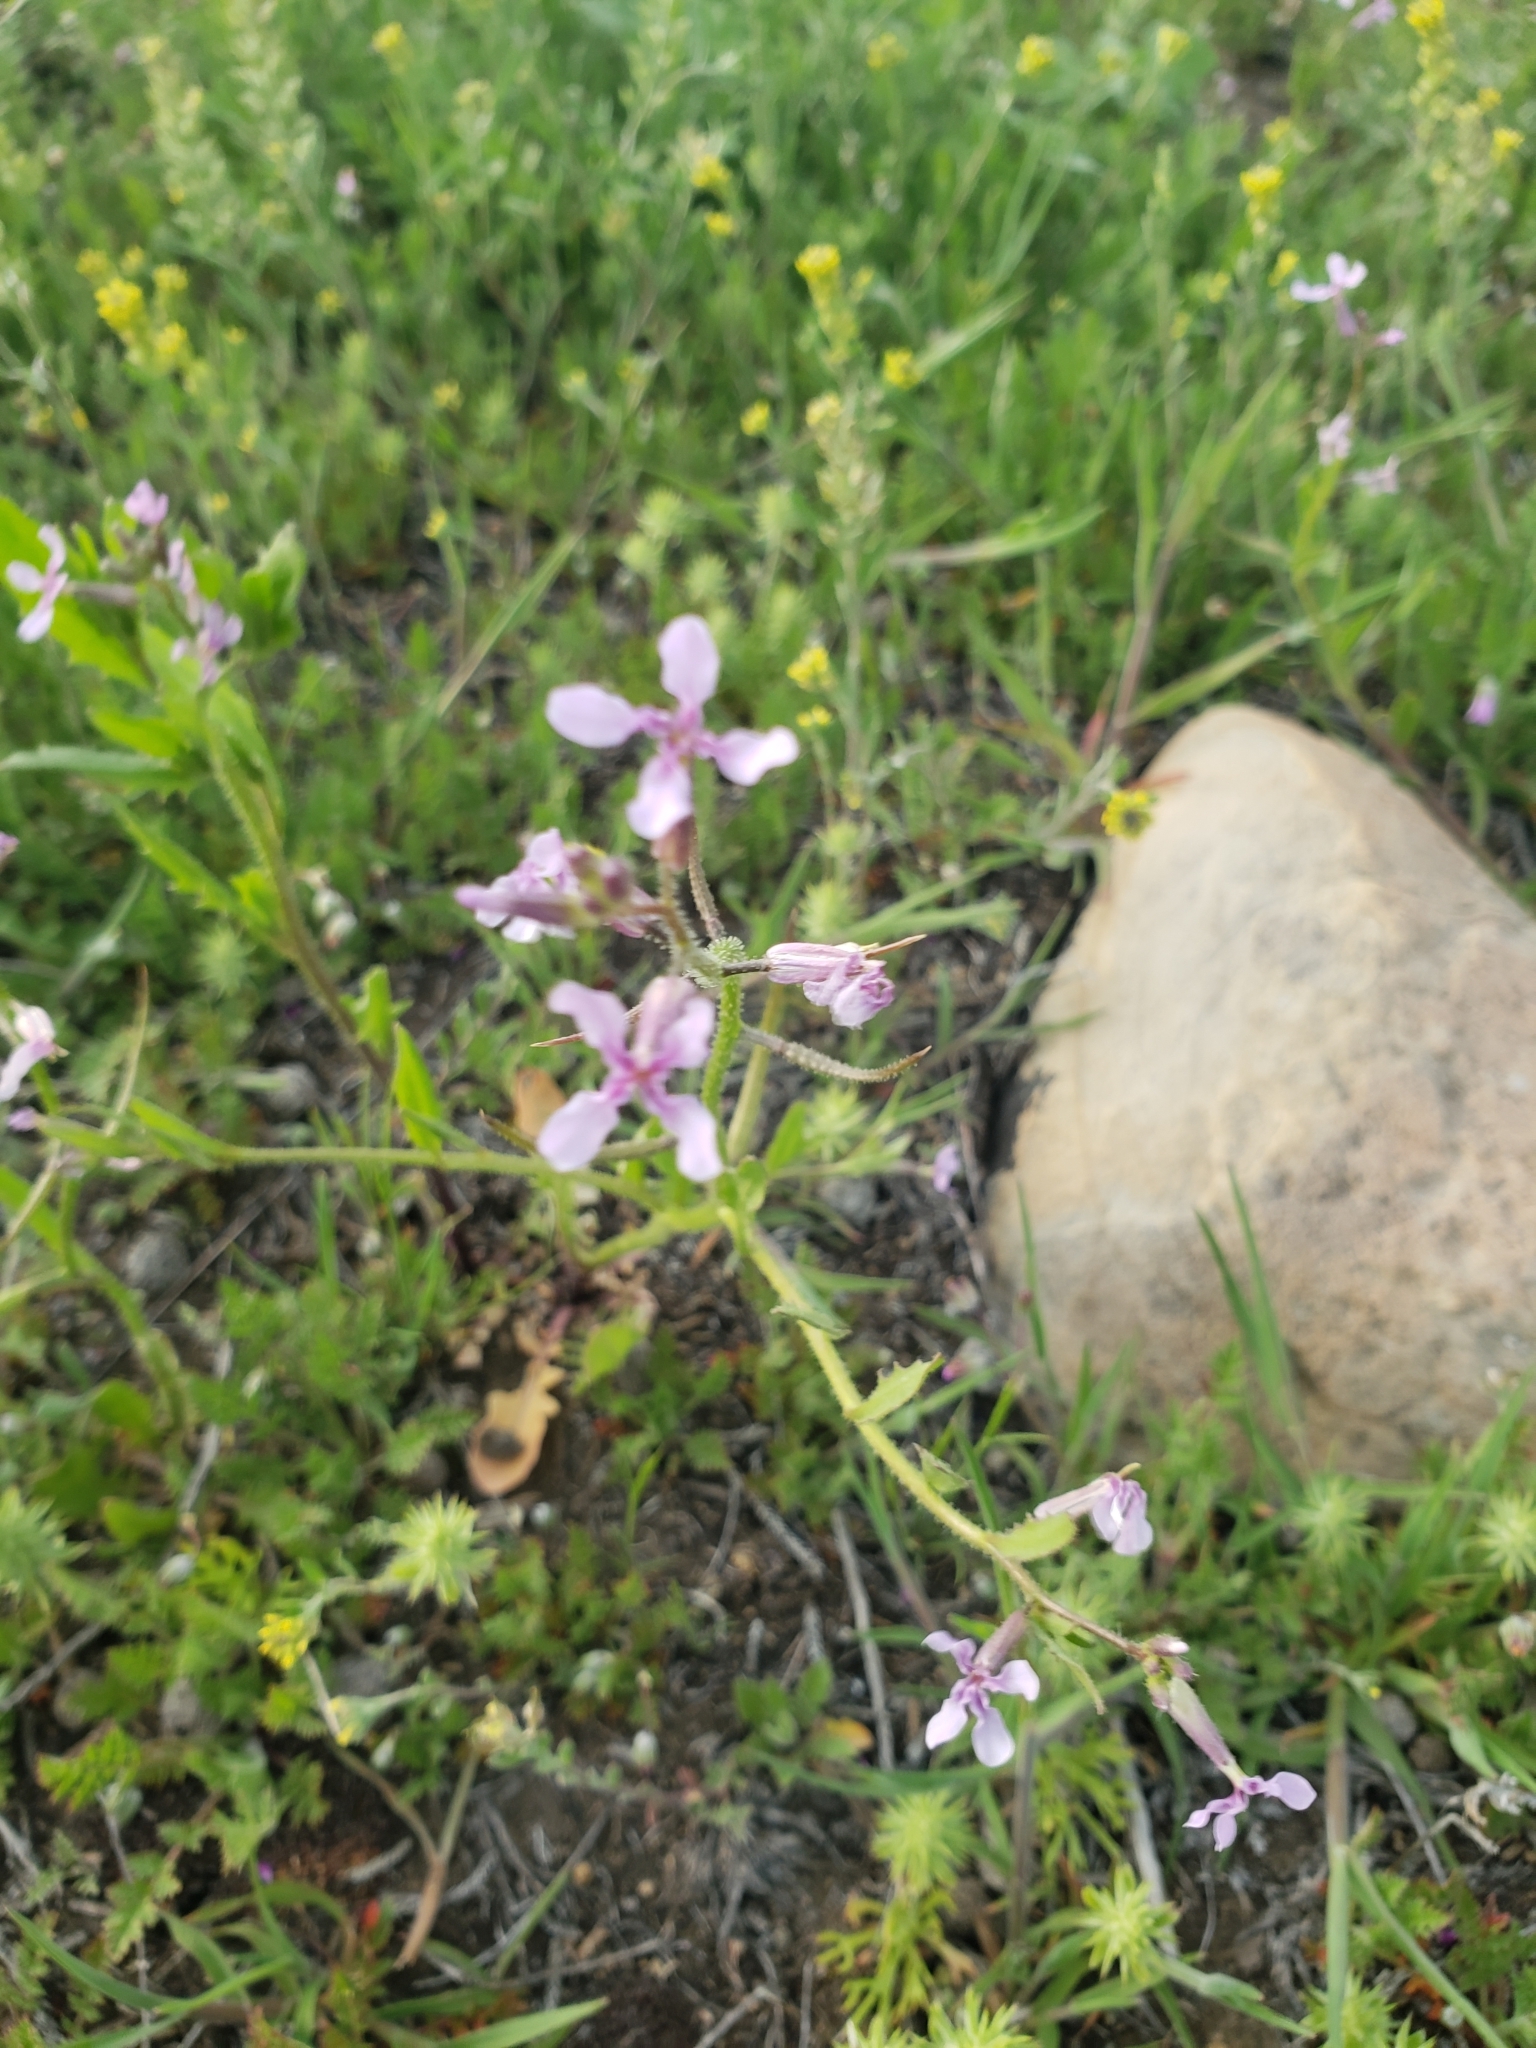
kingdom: Plantae
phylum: Tracheophyta
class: Magnoliopsida
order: Brassicales
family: Brassicaceae
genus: Chorispora
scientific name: Chorispora tenella
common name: Crossflower
